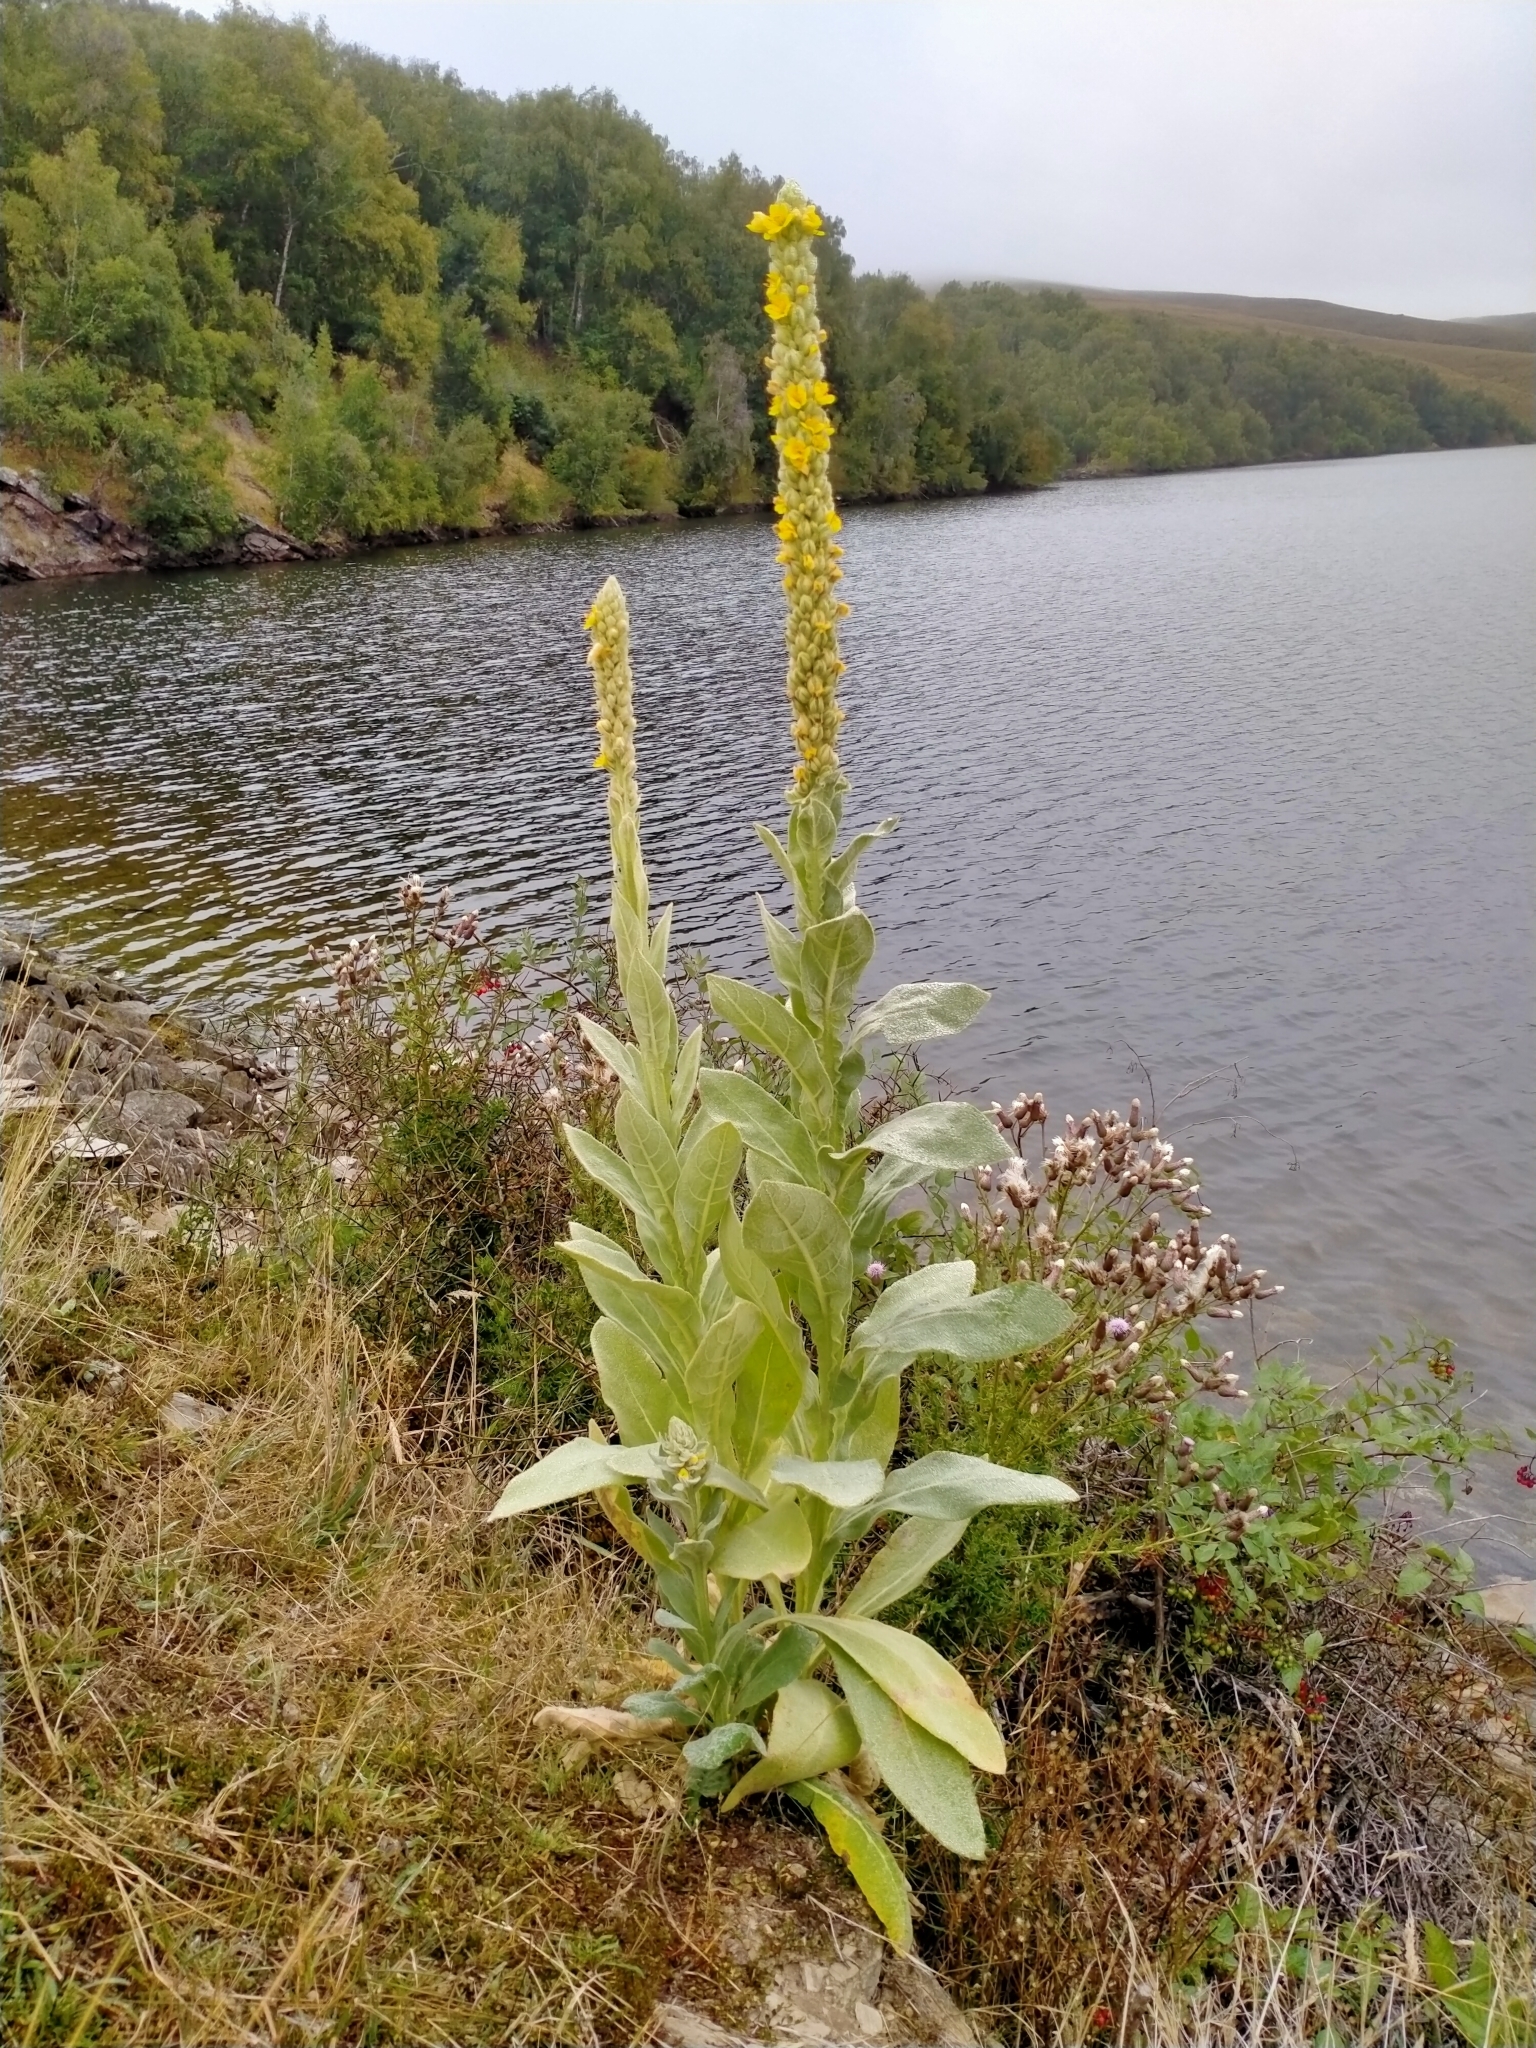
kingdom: Plantae
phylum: Tracheophyta
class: Magnoliopsida
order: Lamiales
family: Scrophulariaceae
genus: Verbascum
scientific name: Verbascum thapsus
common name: Common mullein
